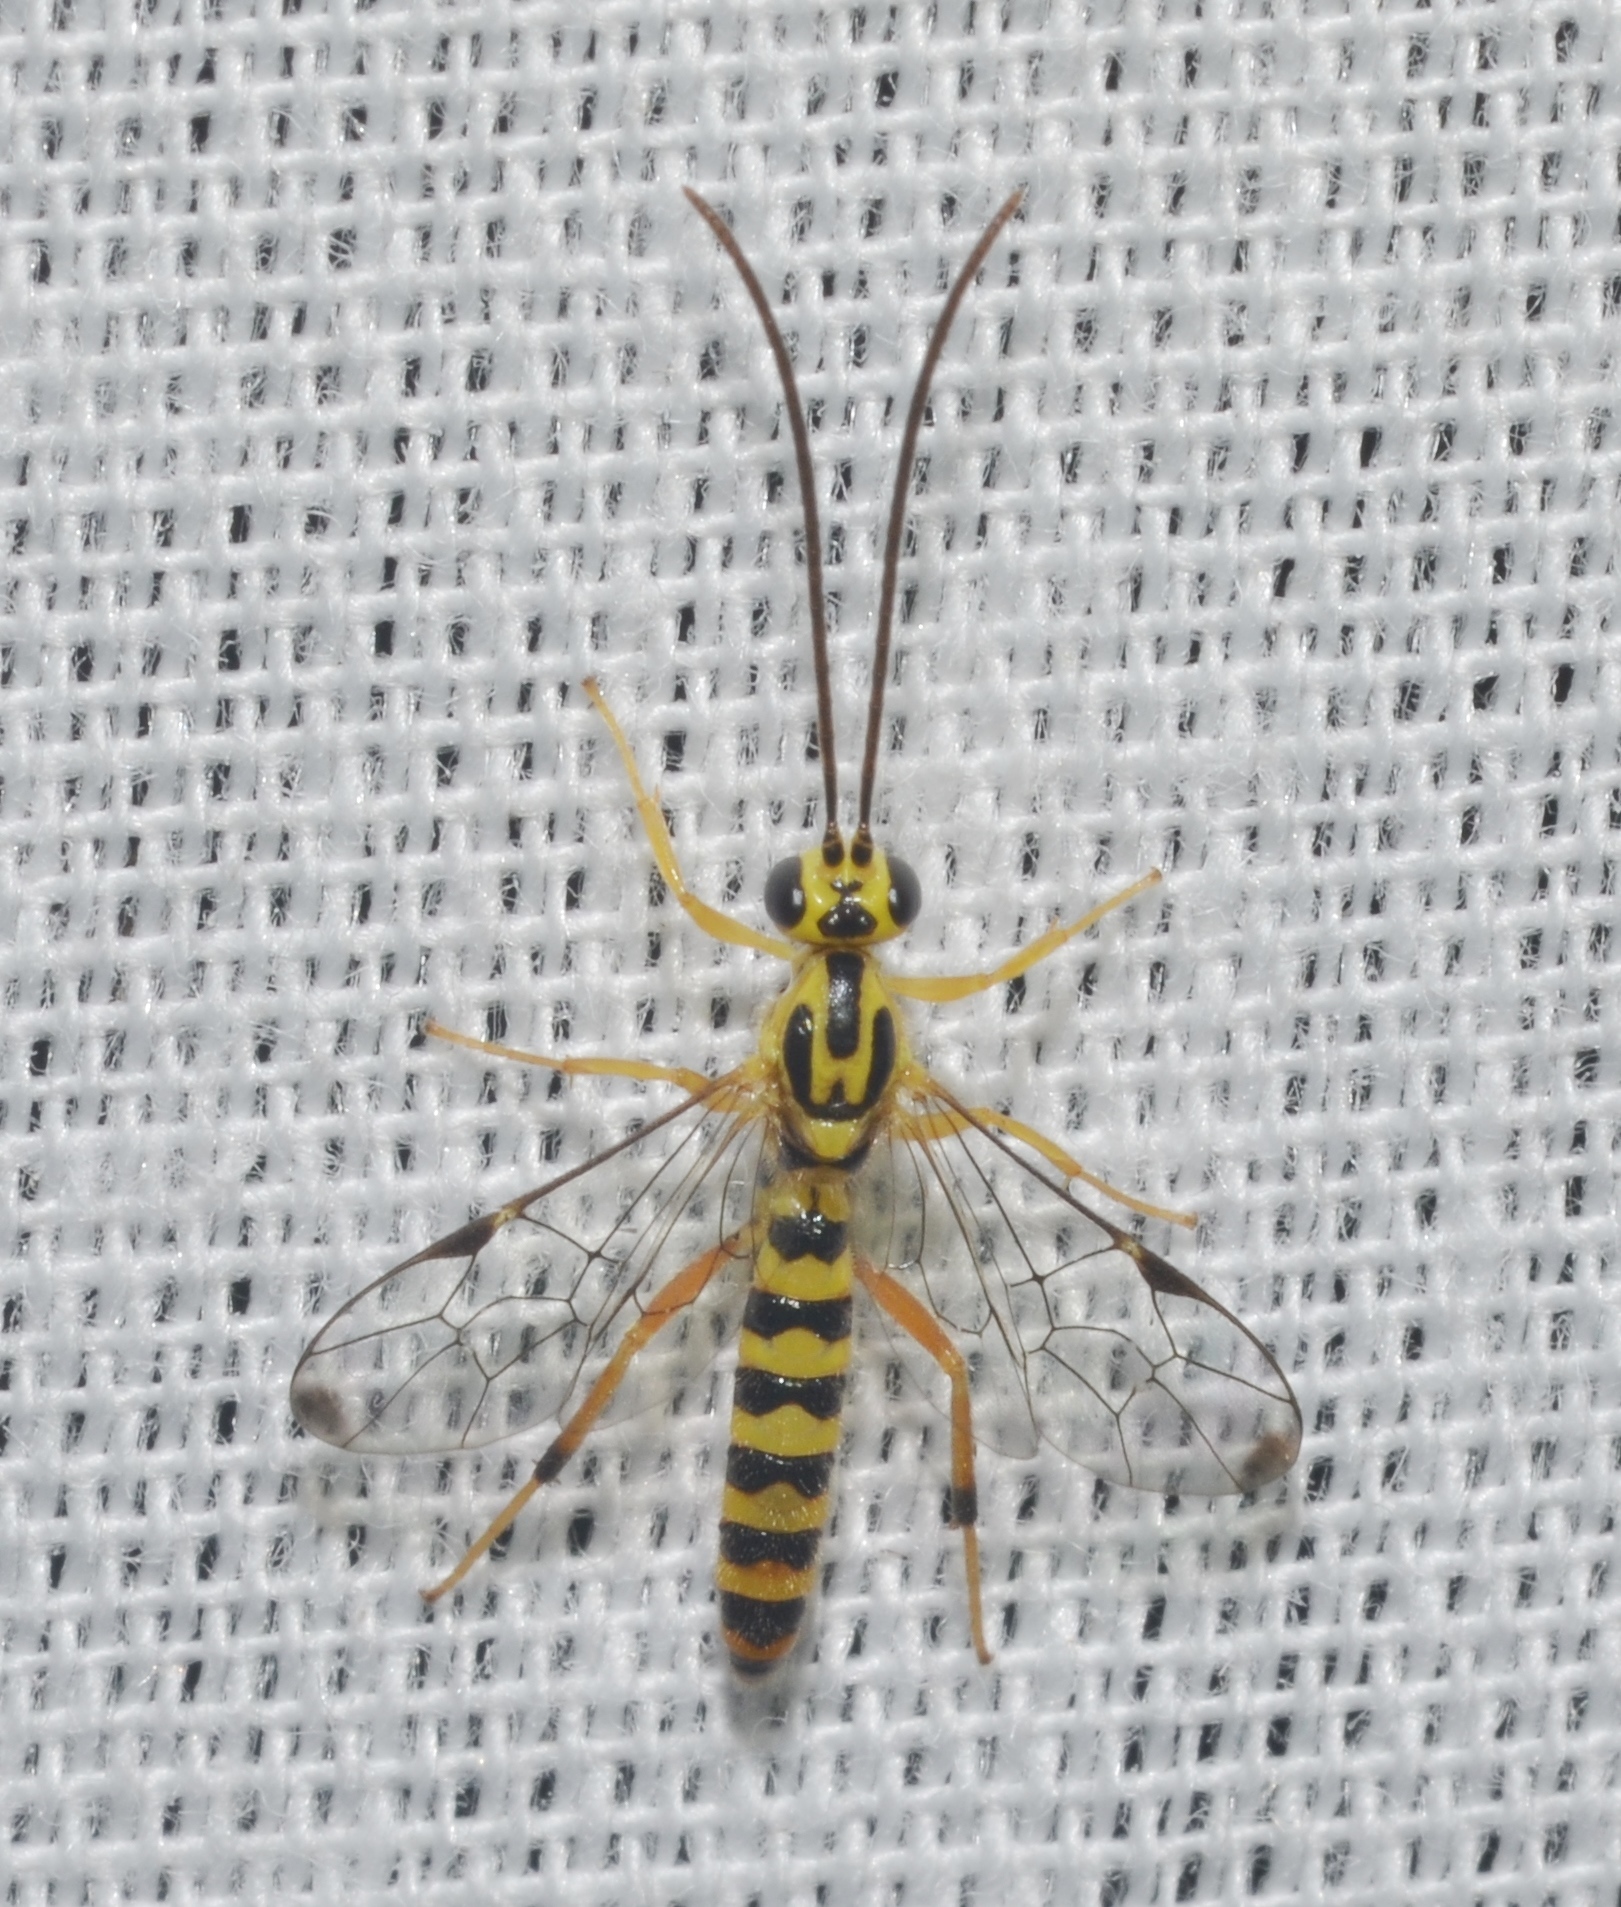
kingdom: Animalia
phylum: Arthropoda
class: Insecta
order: Hymenoptera
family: Ichneumonidae
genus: Lycorina
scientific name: Lycorina glaucomata
